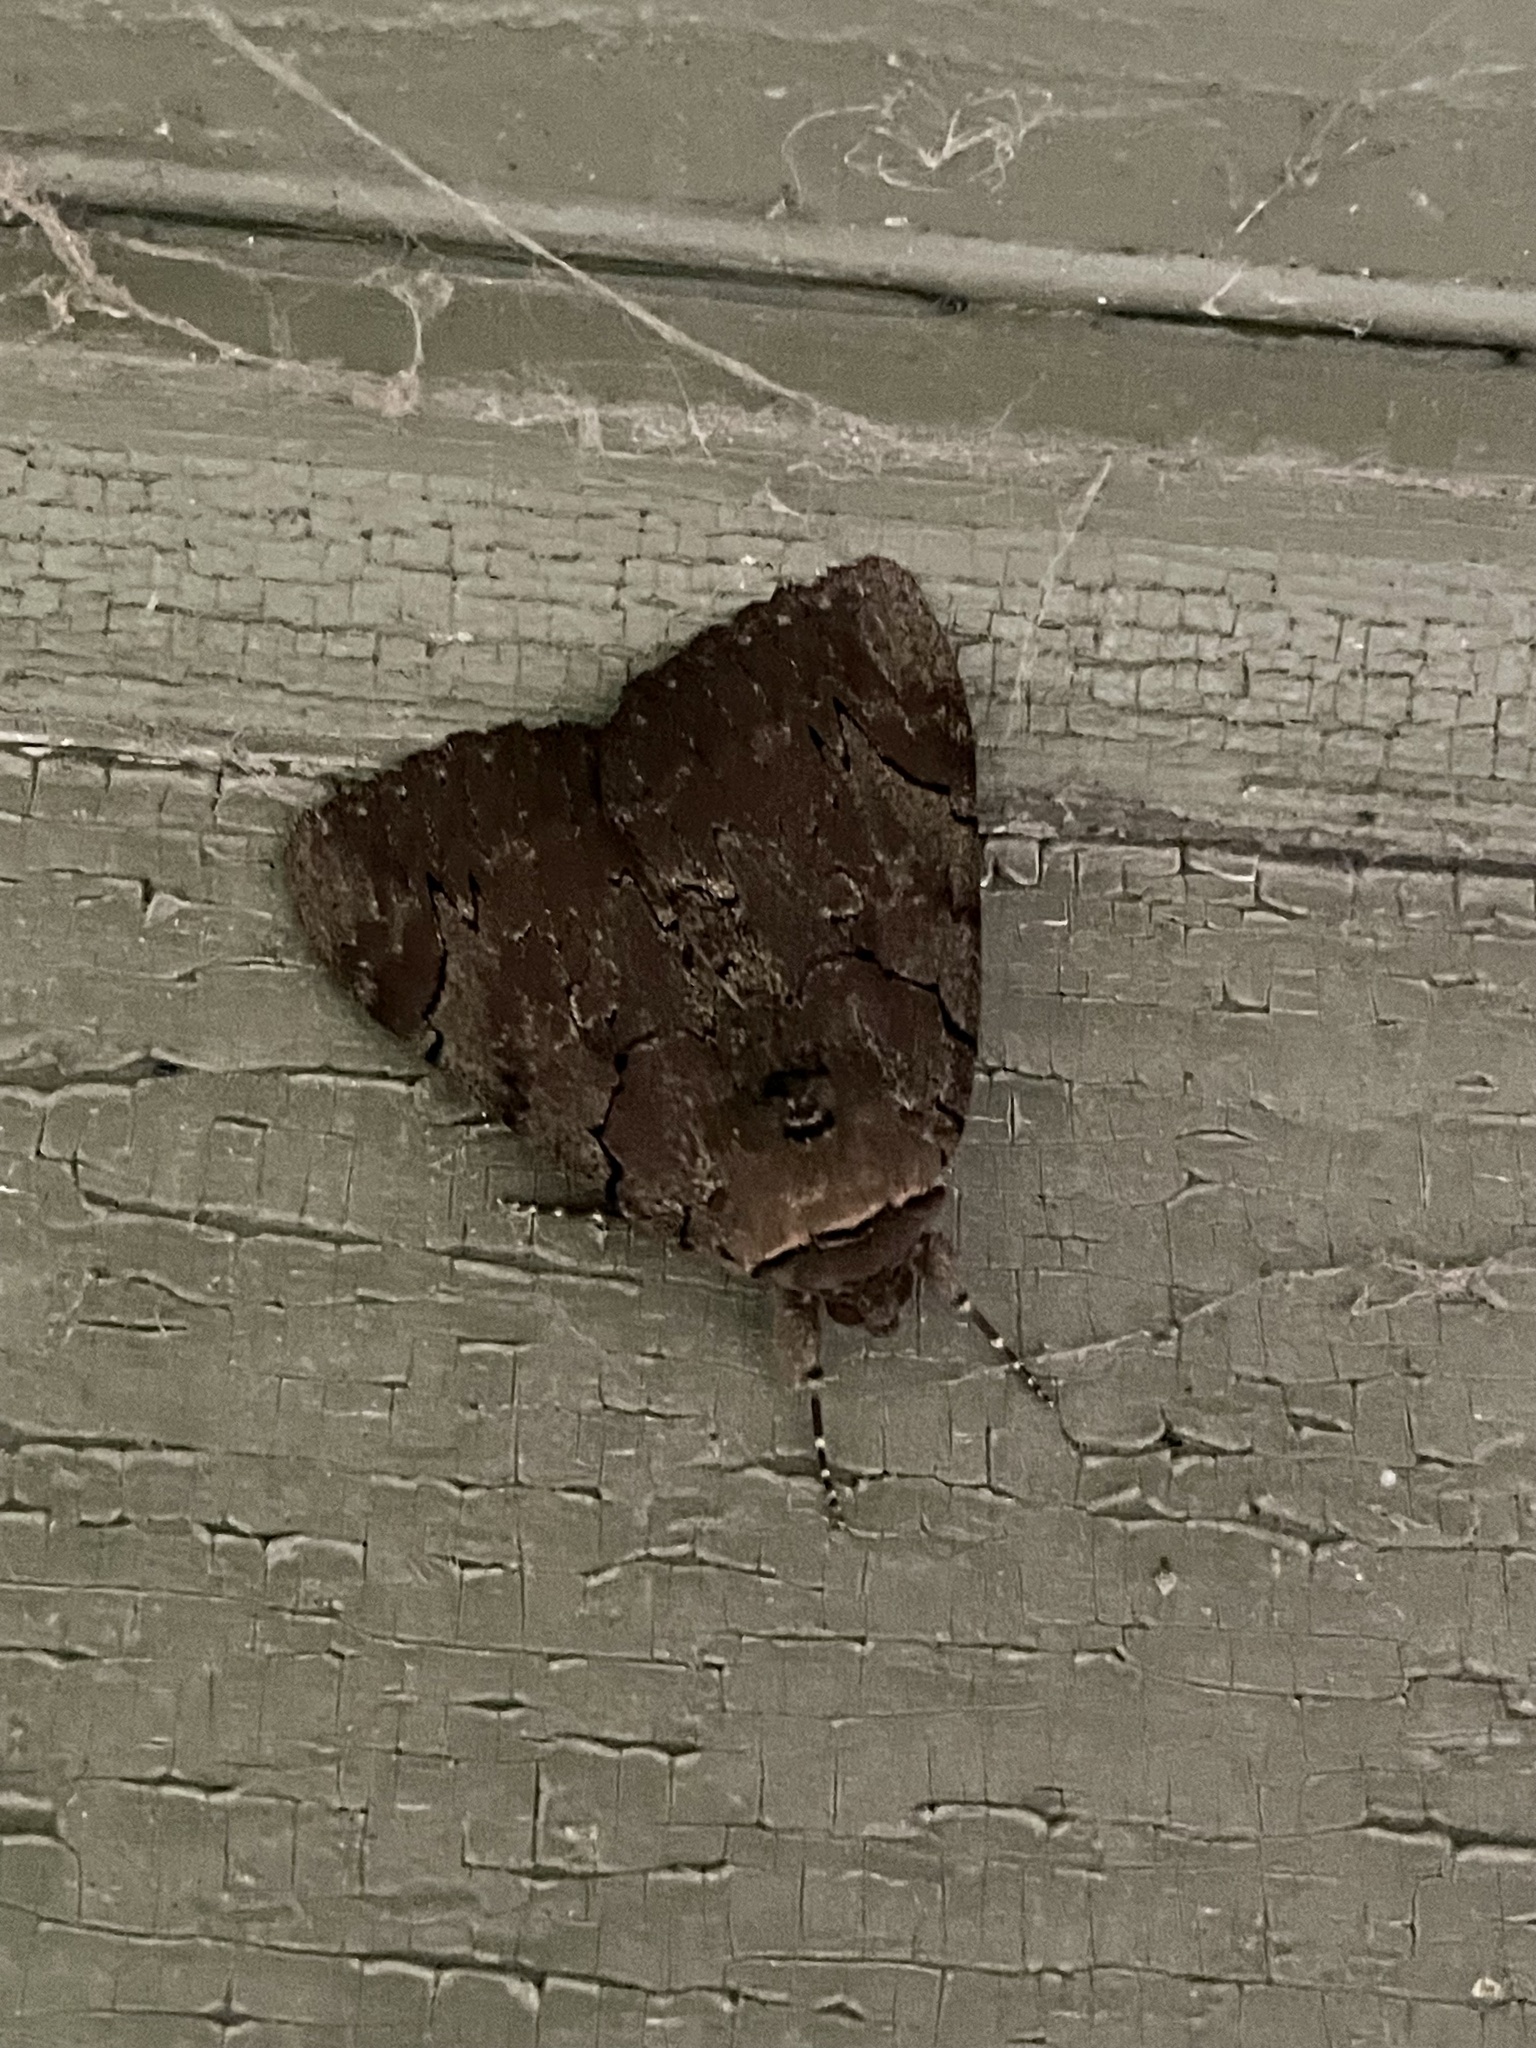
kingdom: Animalia
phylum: Arthropoda
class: Insecta
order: Lepidoptera
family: Erebidae
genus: Catocala
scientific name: Catocala cara
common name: Darling underwing
